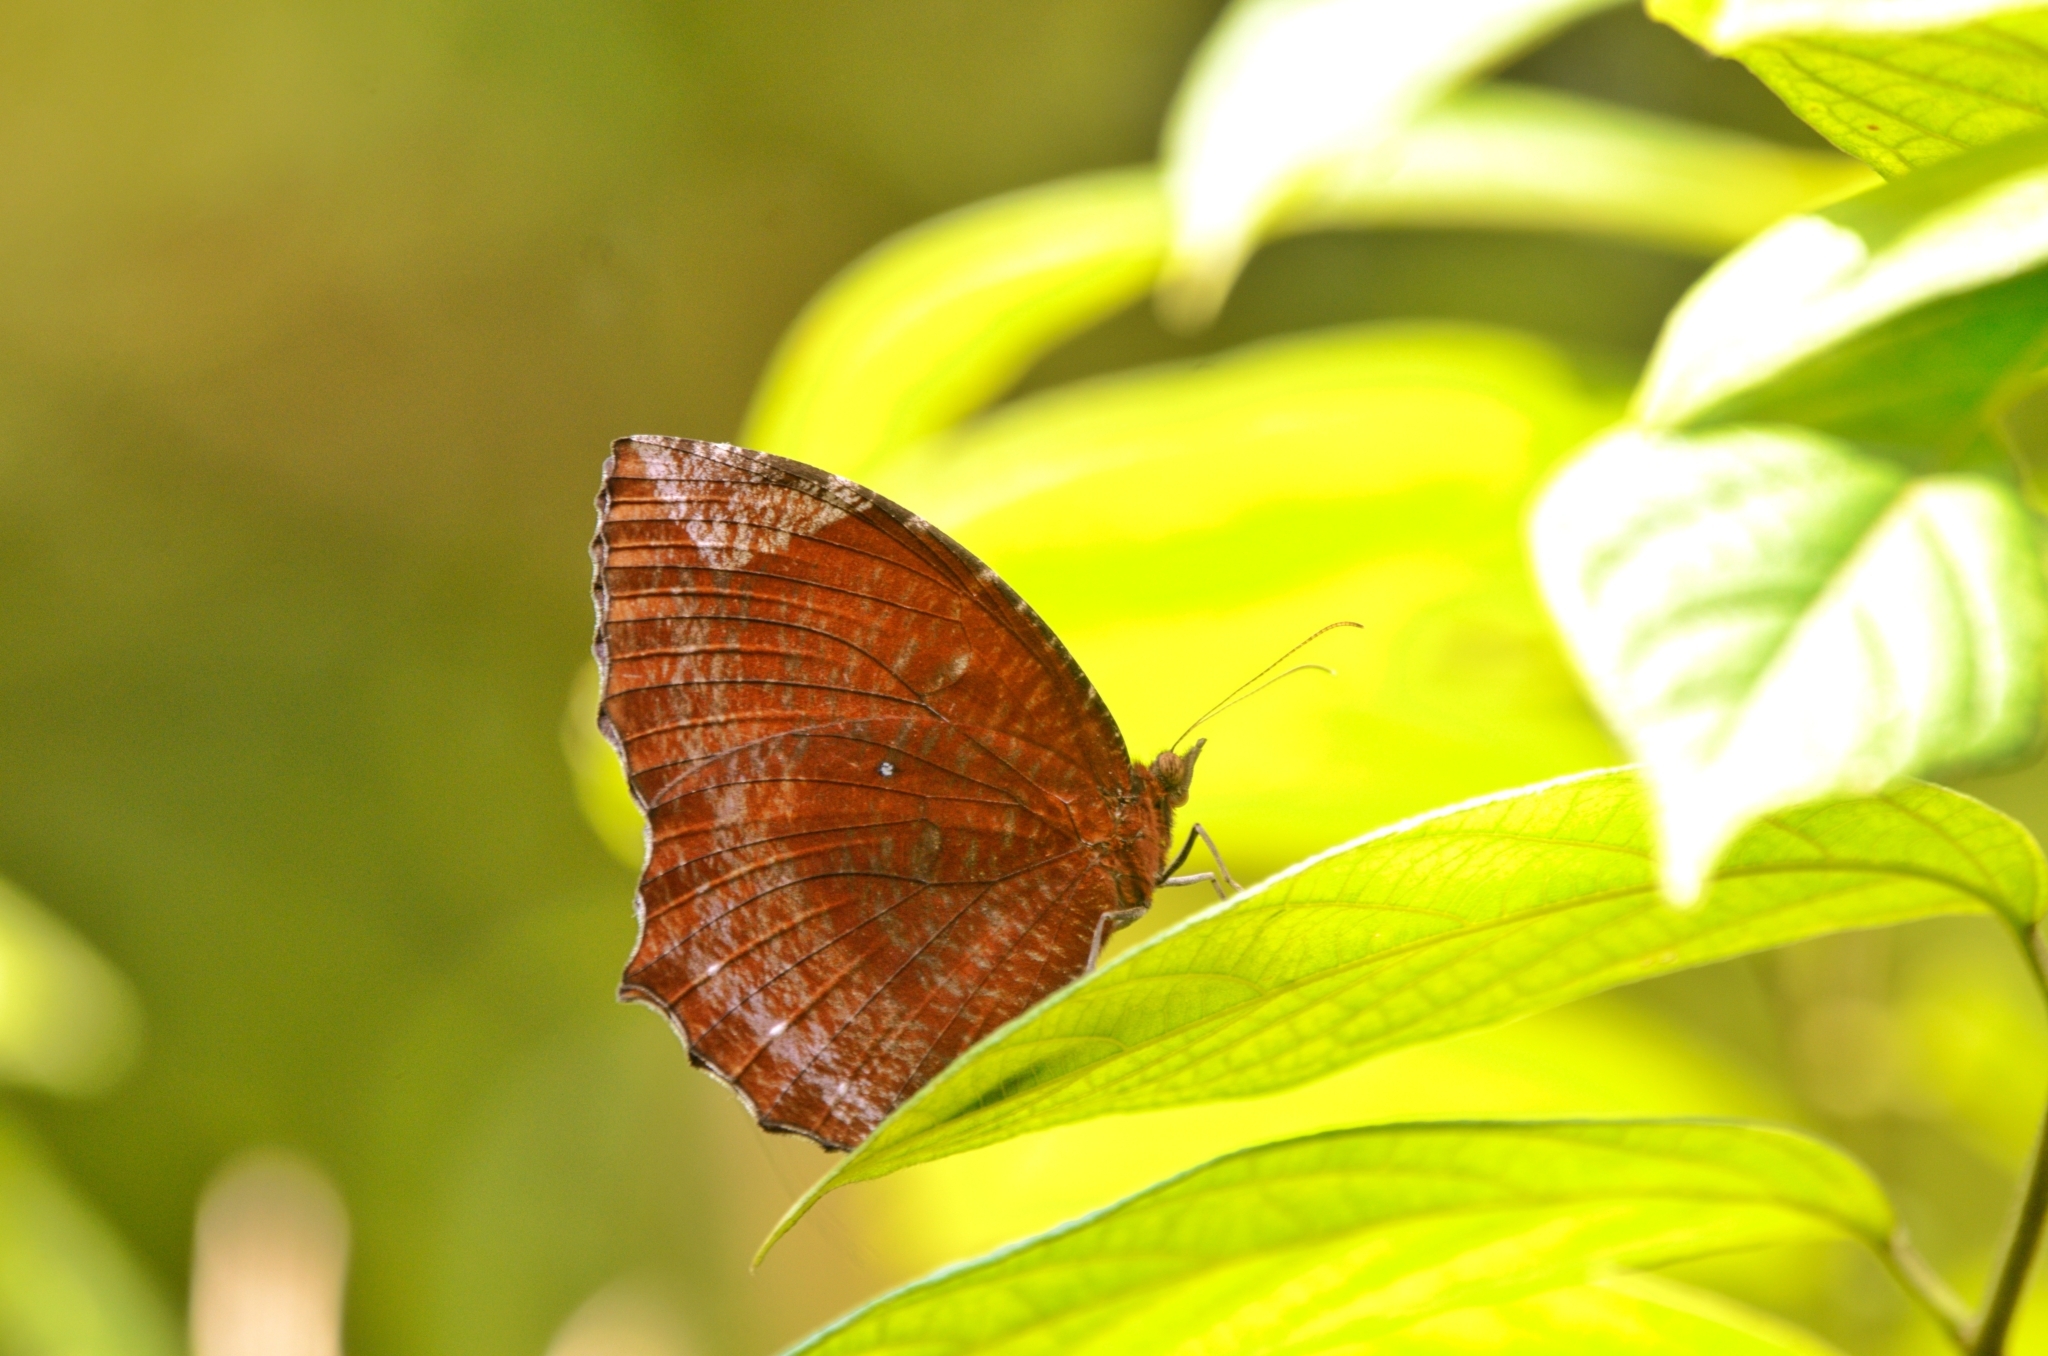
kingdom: Animalia
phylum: Arthropoda
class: Insecta
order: Lepidoptera
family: Nymphalidae
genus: Elymnias
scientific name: Elymnias hypermnestra
